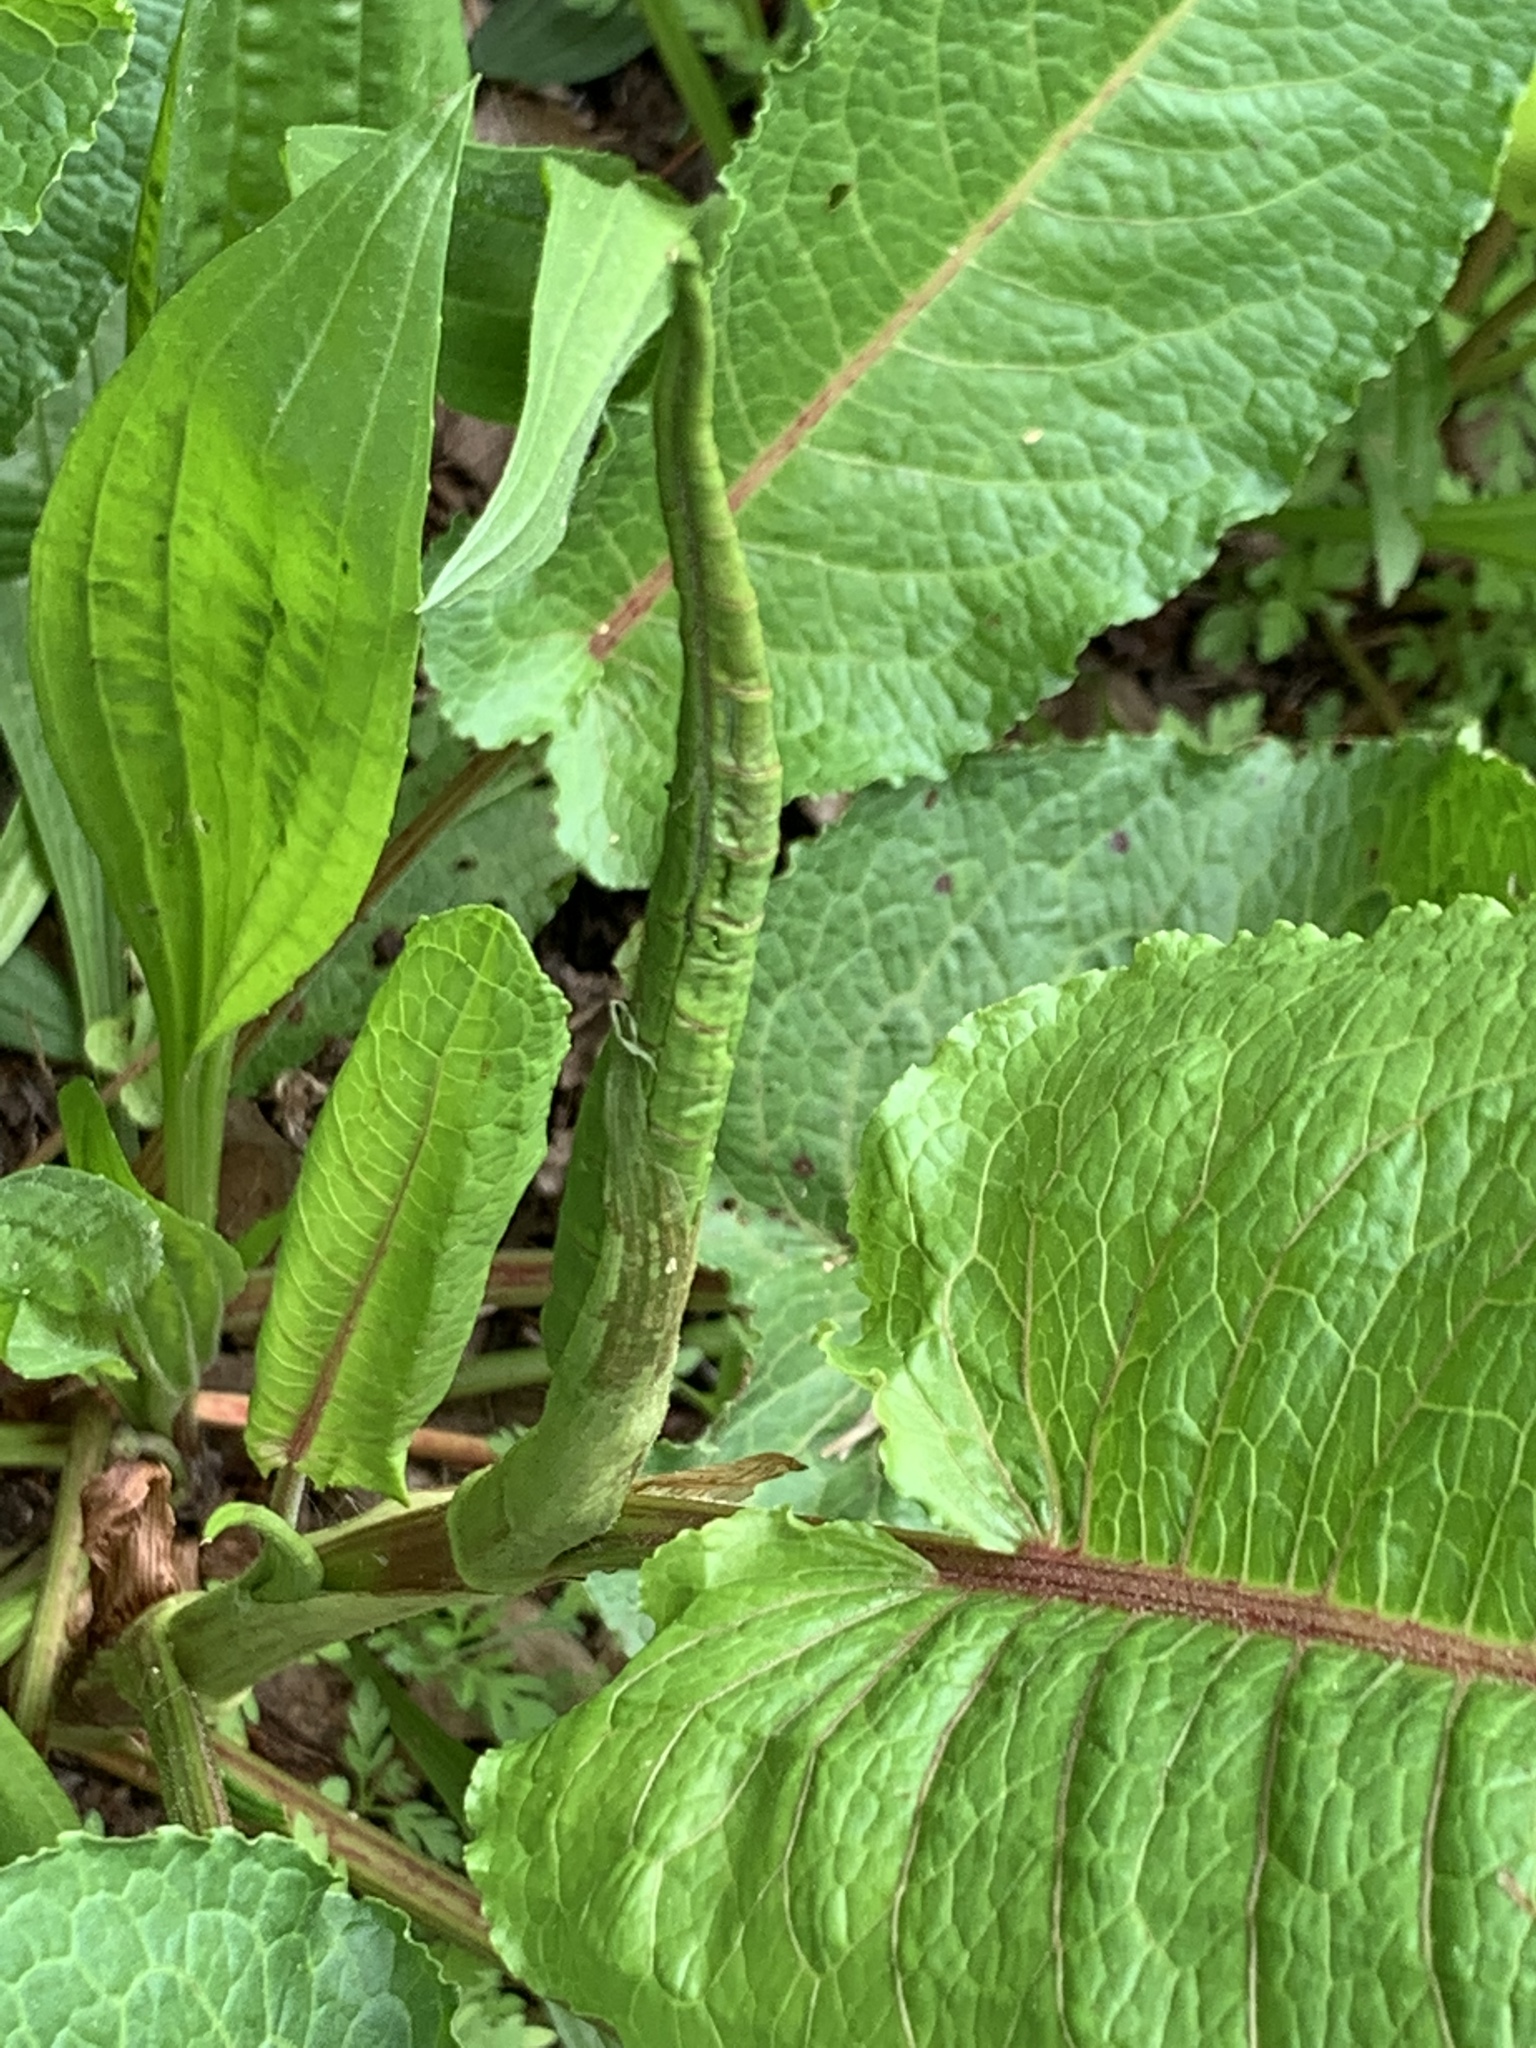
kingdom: Plantae
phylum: Tracheophyta
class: Magnoliopsida
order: Caryophyllales
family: Polygonaceae
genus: Rumex
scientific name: Rumex obtusifolius
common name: Bitter dock
